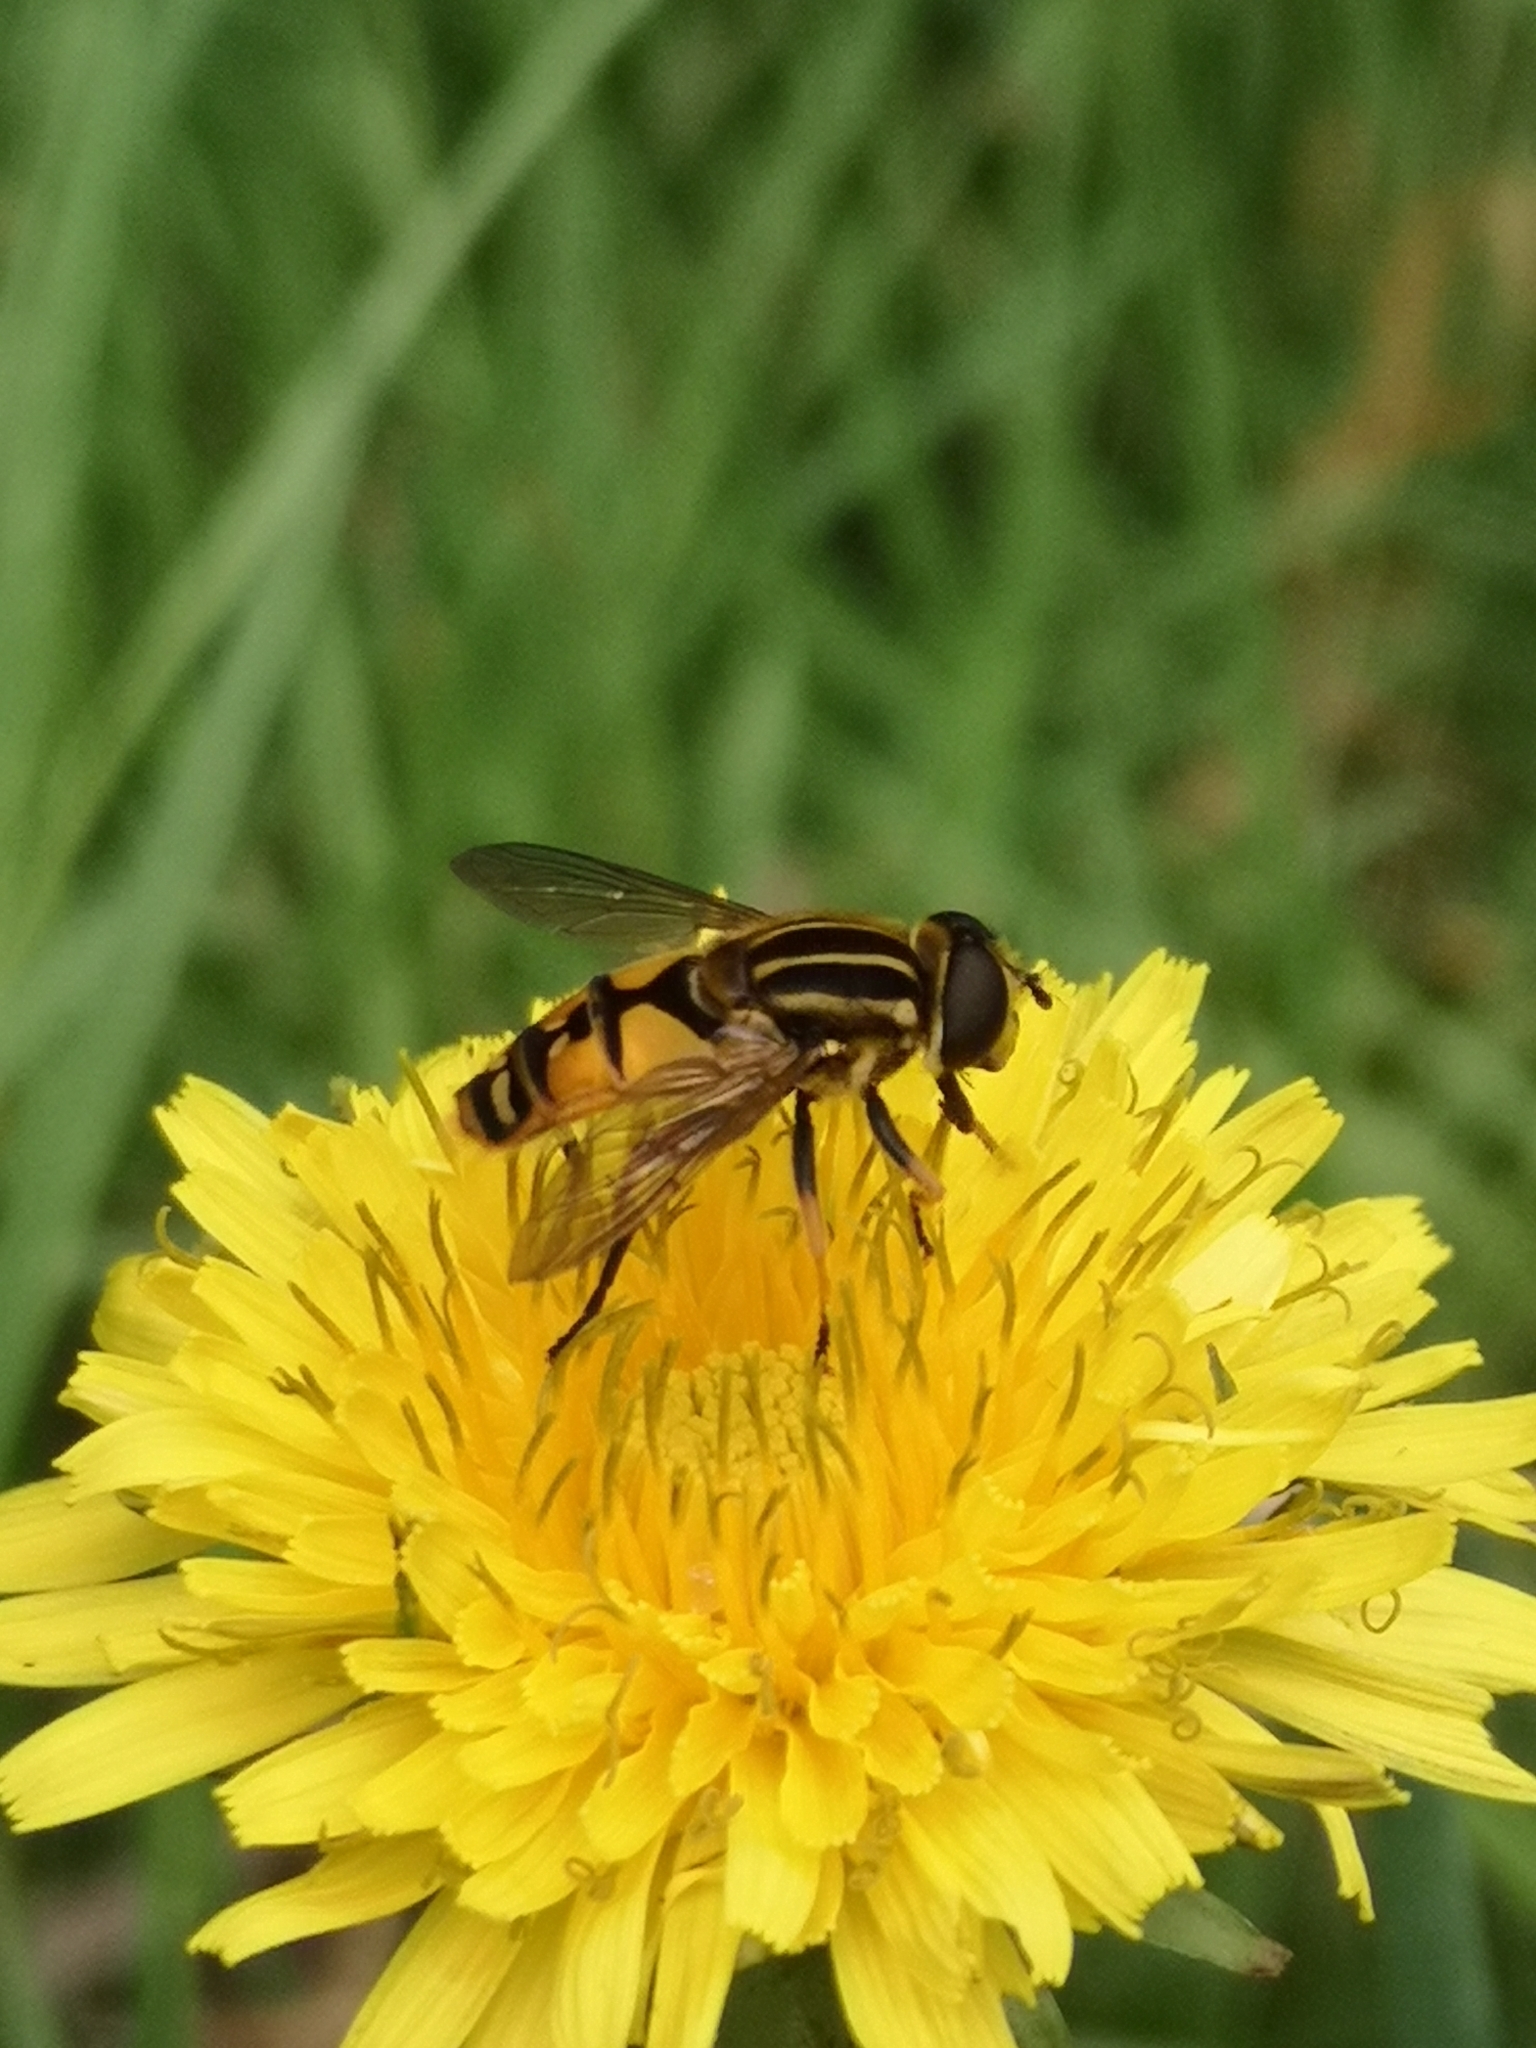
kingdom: Animalia
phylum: Arthropoda
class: Insecta
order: Diptera
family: Syrphidae
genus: Helophilus
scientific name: Helophilus pendulus
